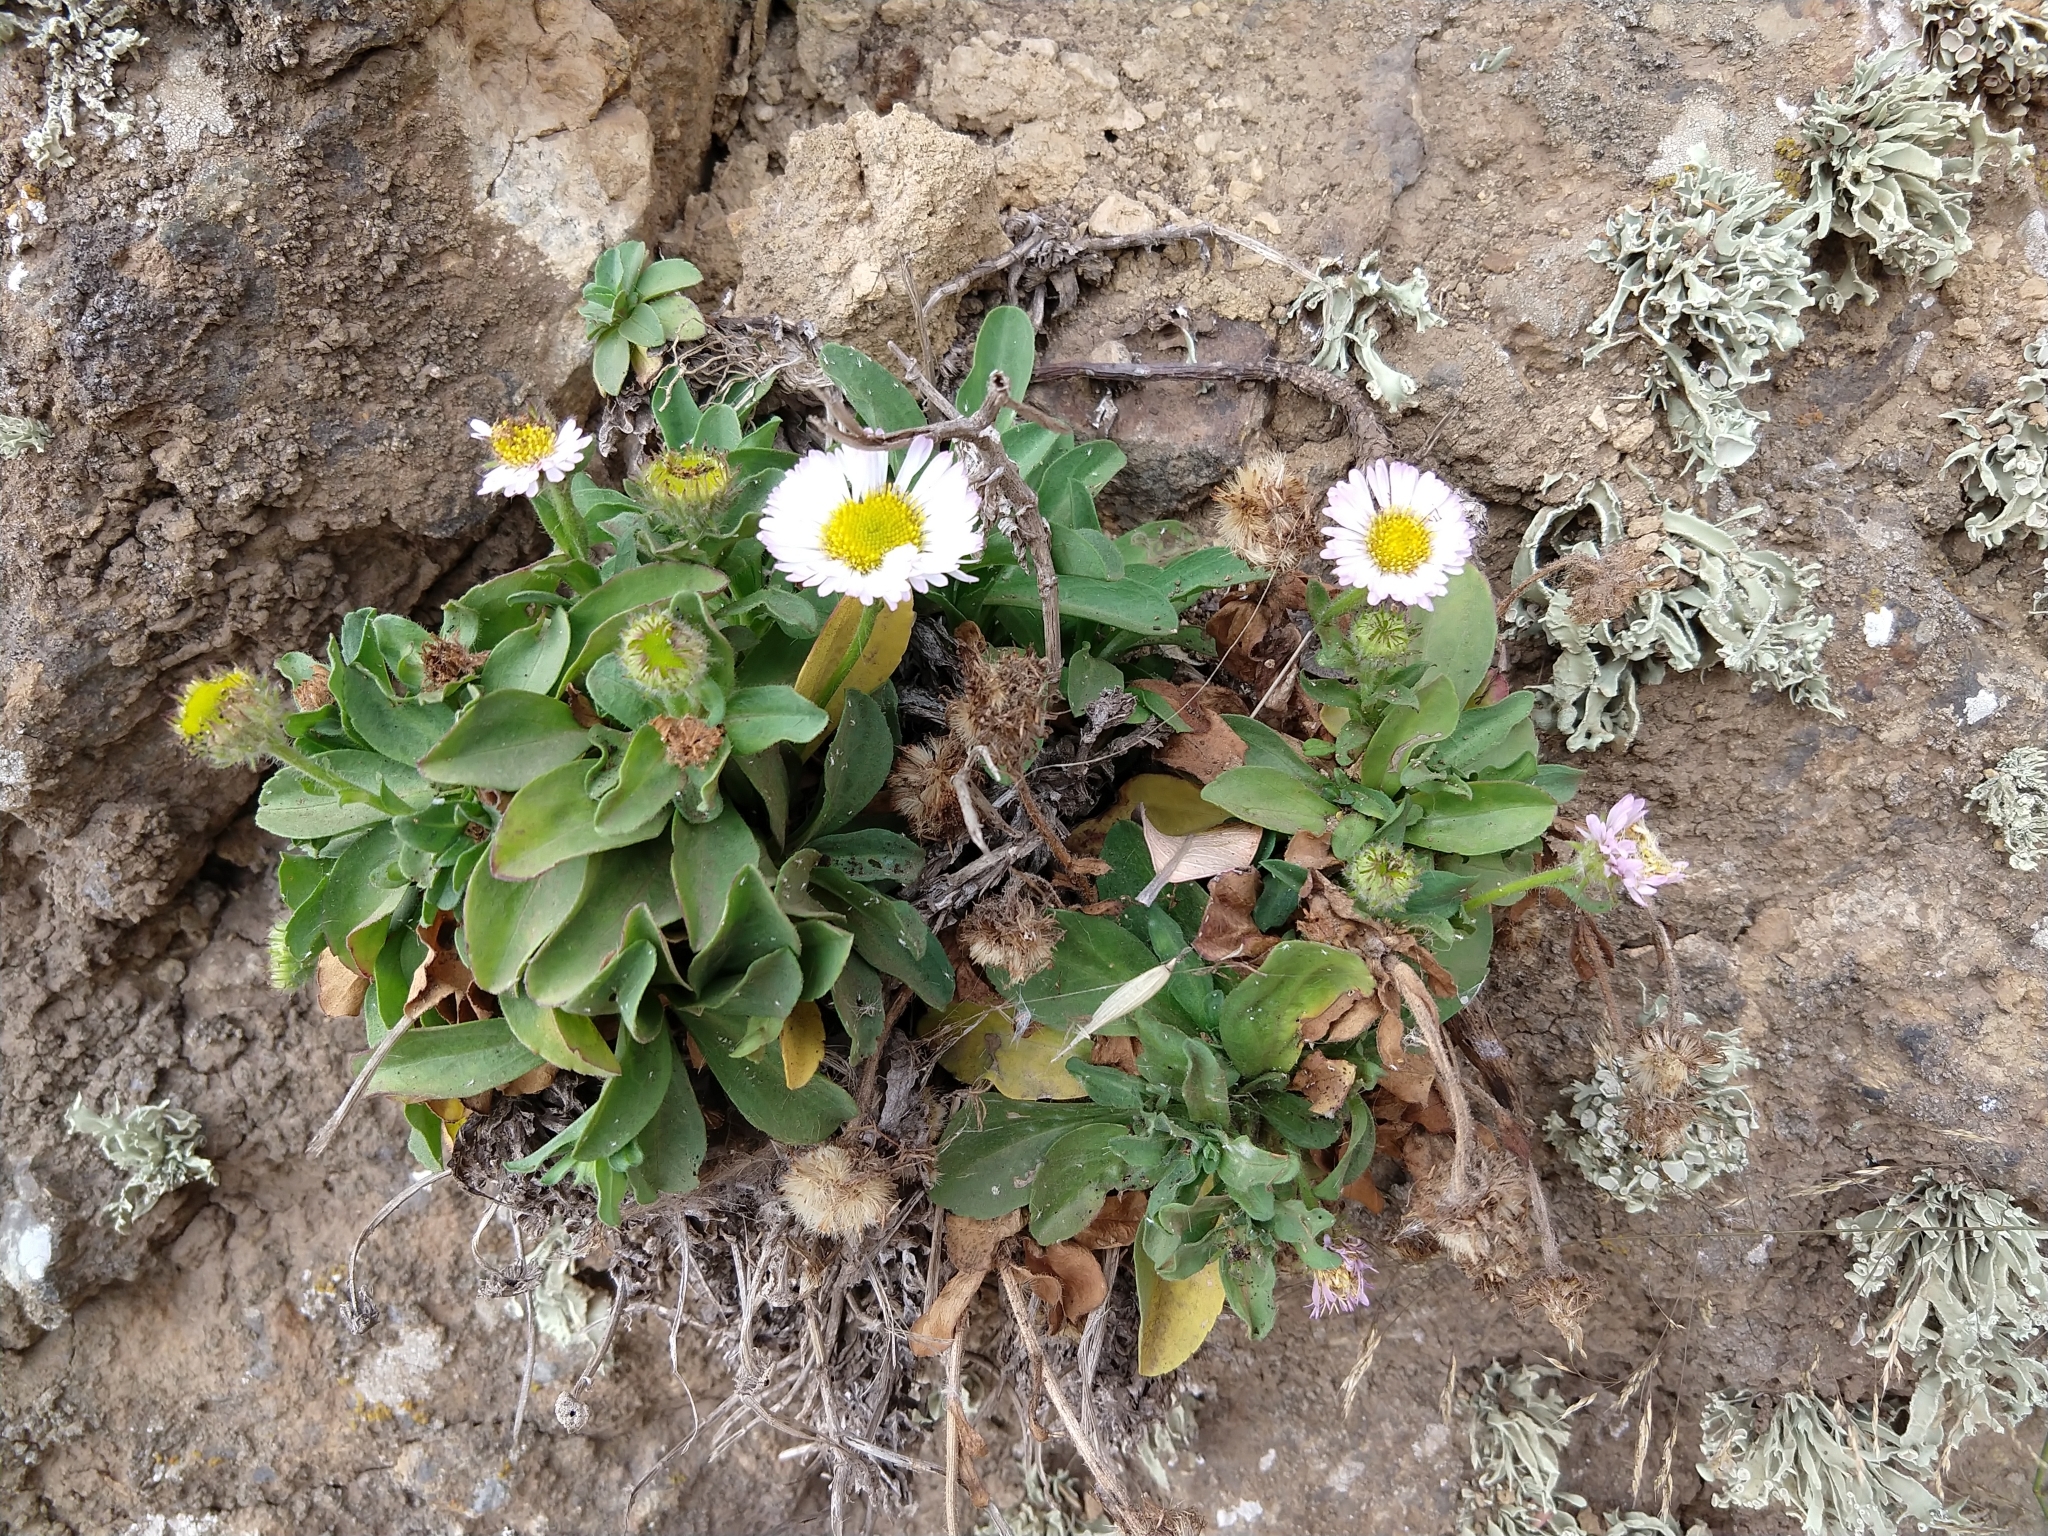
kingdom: Plantae
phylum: Tracheophyta
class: Magnoliopsida
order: Asterales
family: Asteraceae
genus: Erigeron
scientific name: Erigeron glaucus
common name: Seaside daisy
